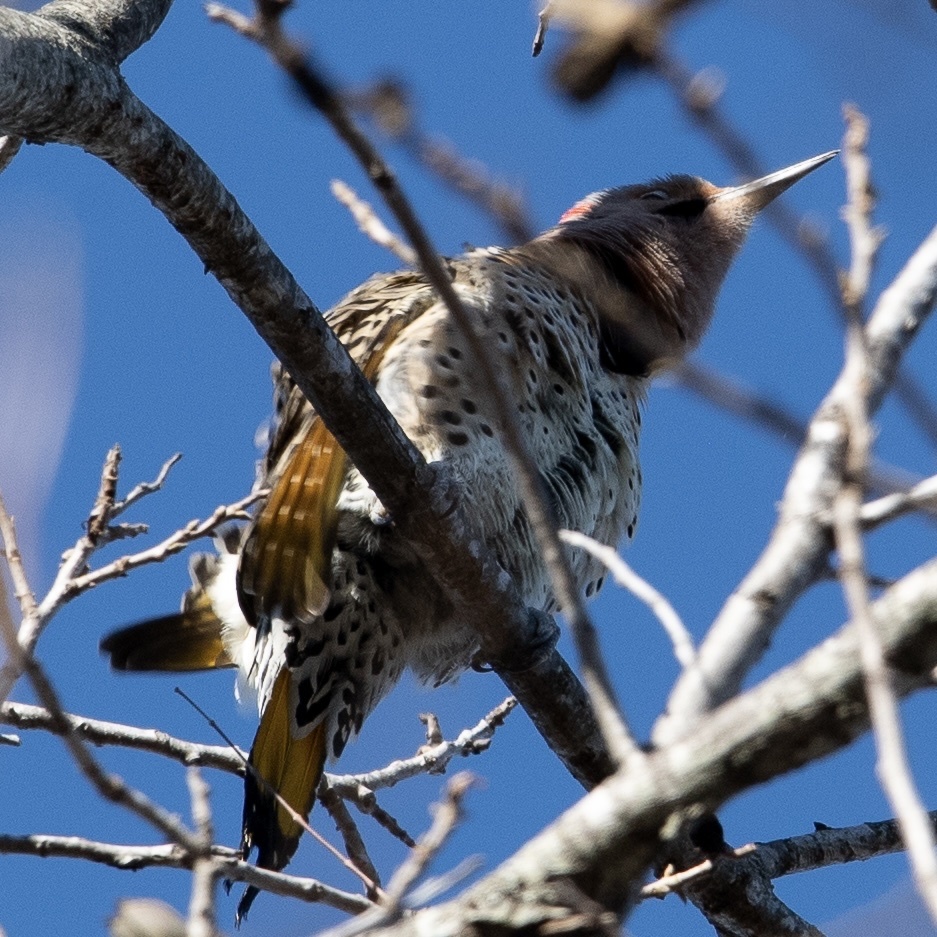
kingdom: Animalia
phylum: Chordata
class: Aves
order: Piciformes
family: Picidae
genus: Colaptes
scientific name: Colaptes auratus
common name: Northern flicker
